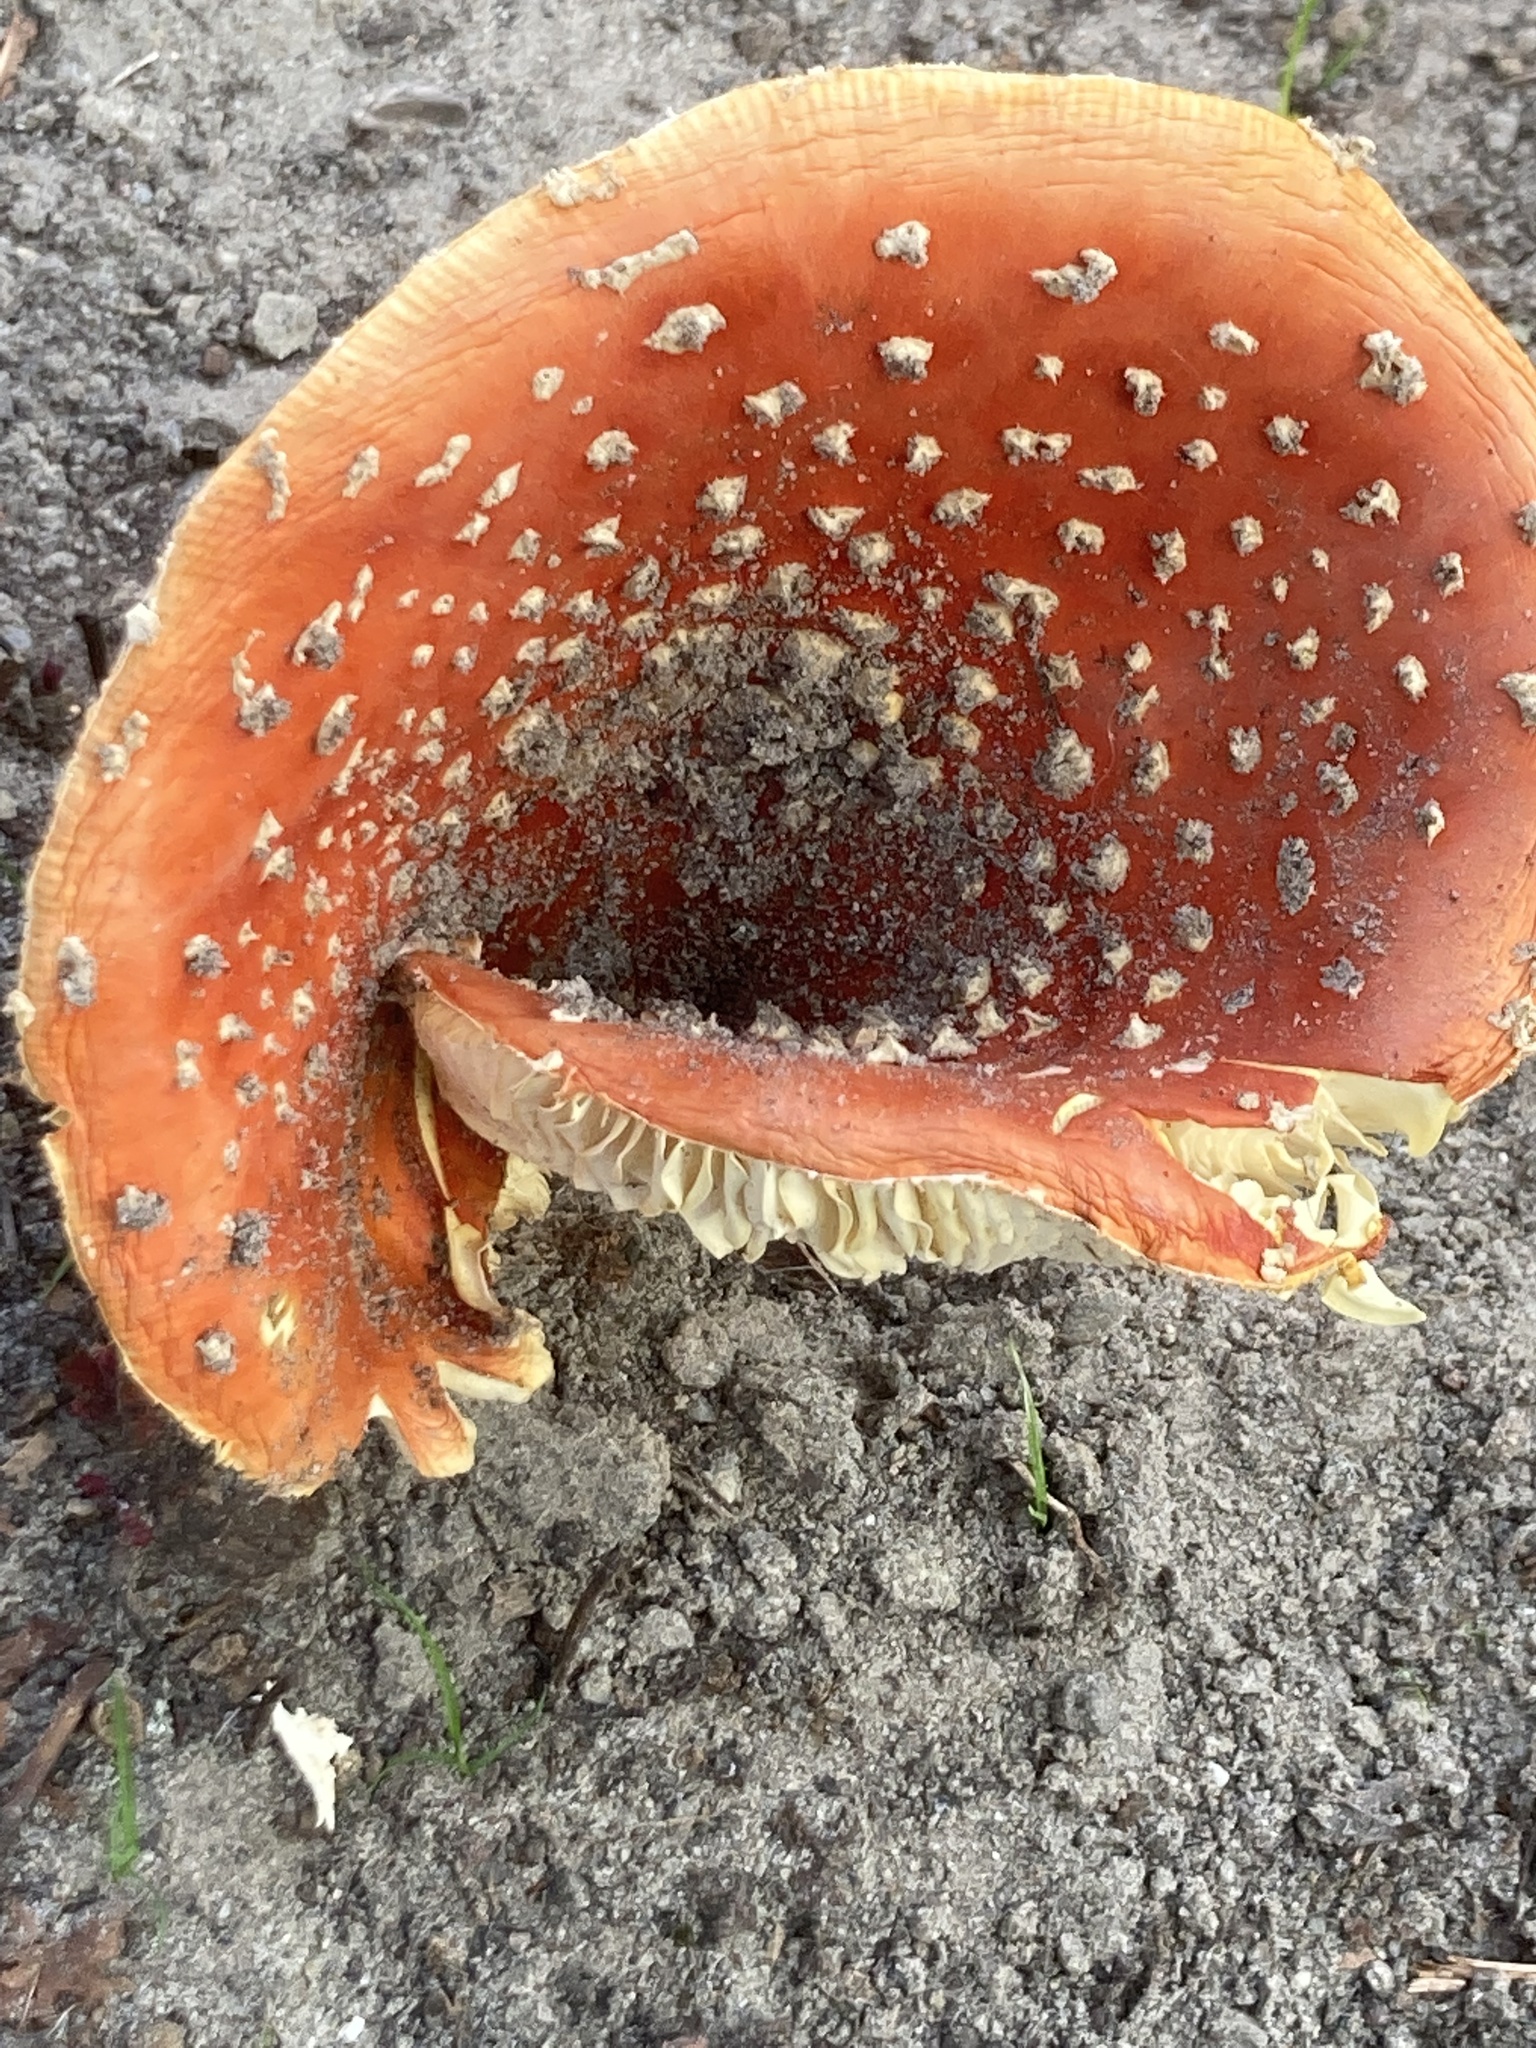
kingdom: Fungi
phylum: Basidiomycota
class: Agaricomycetes
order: Agaricales
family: Amanitaceae
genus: Amanita
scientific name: Amanita muscaria
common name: Fly agaric
